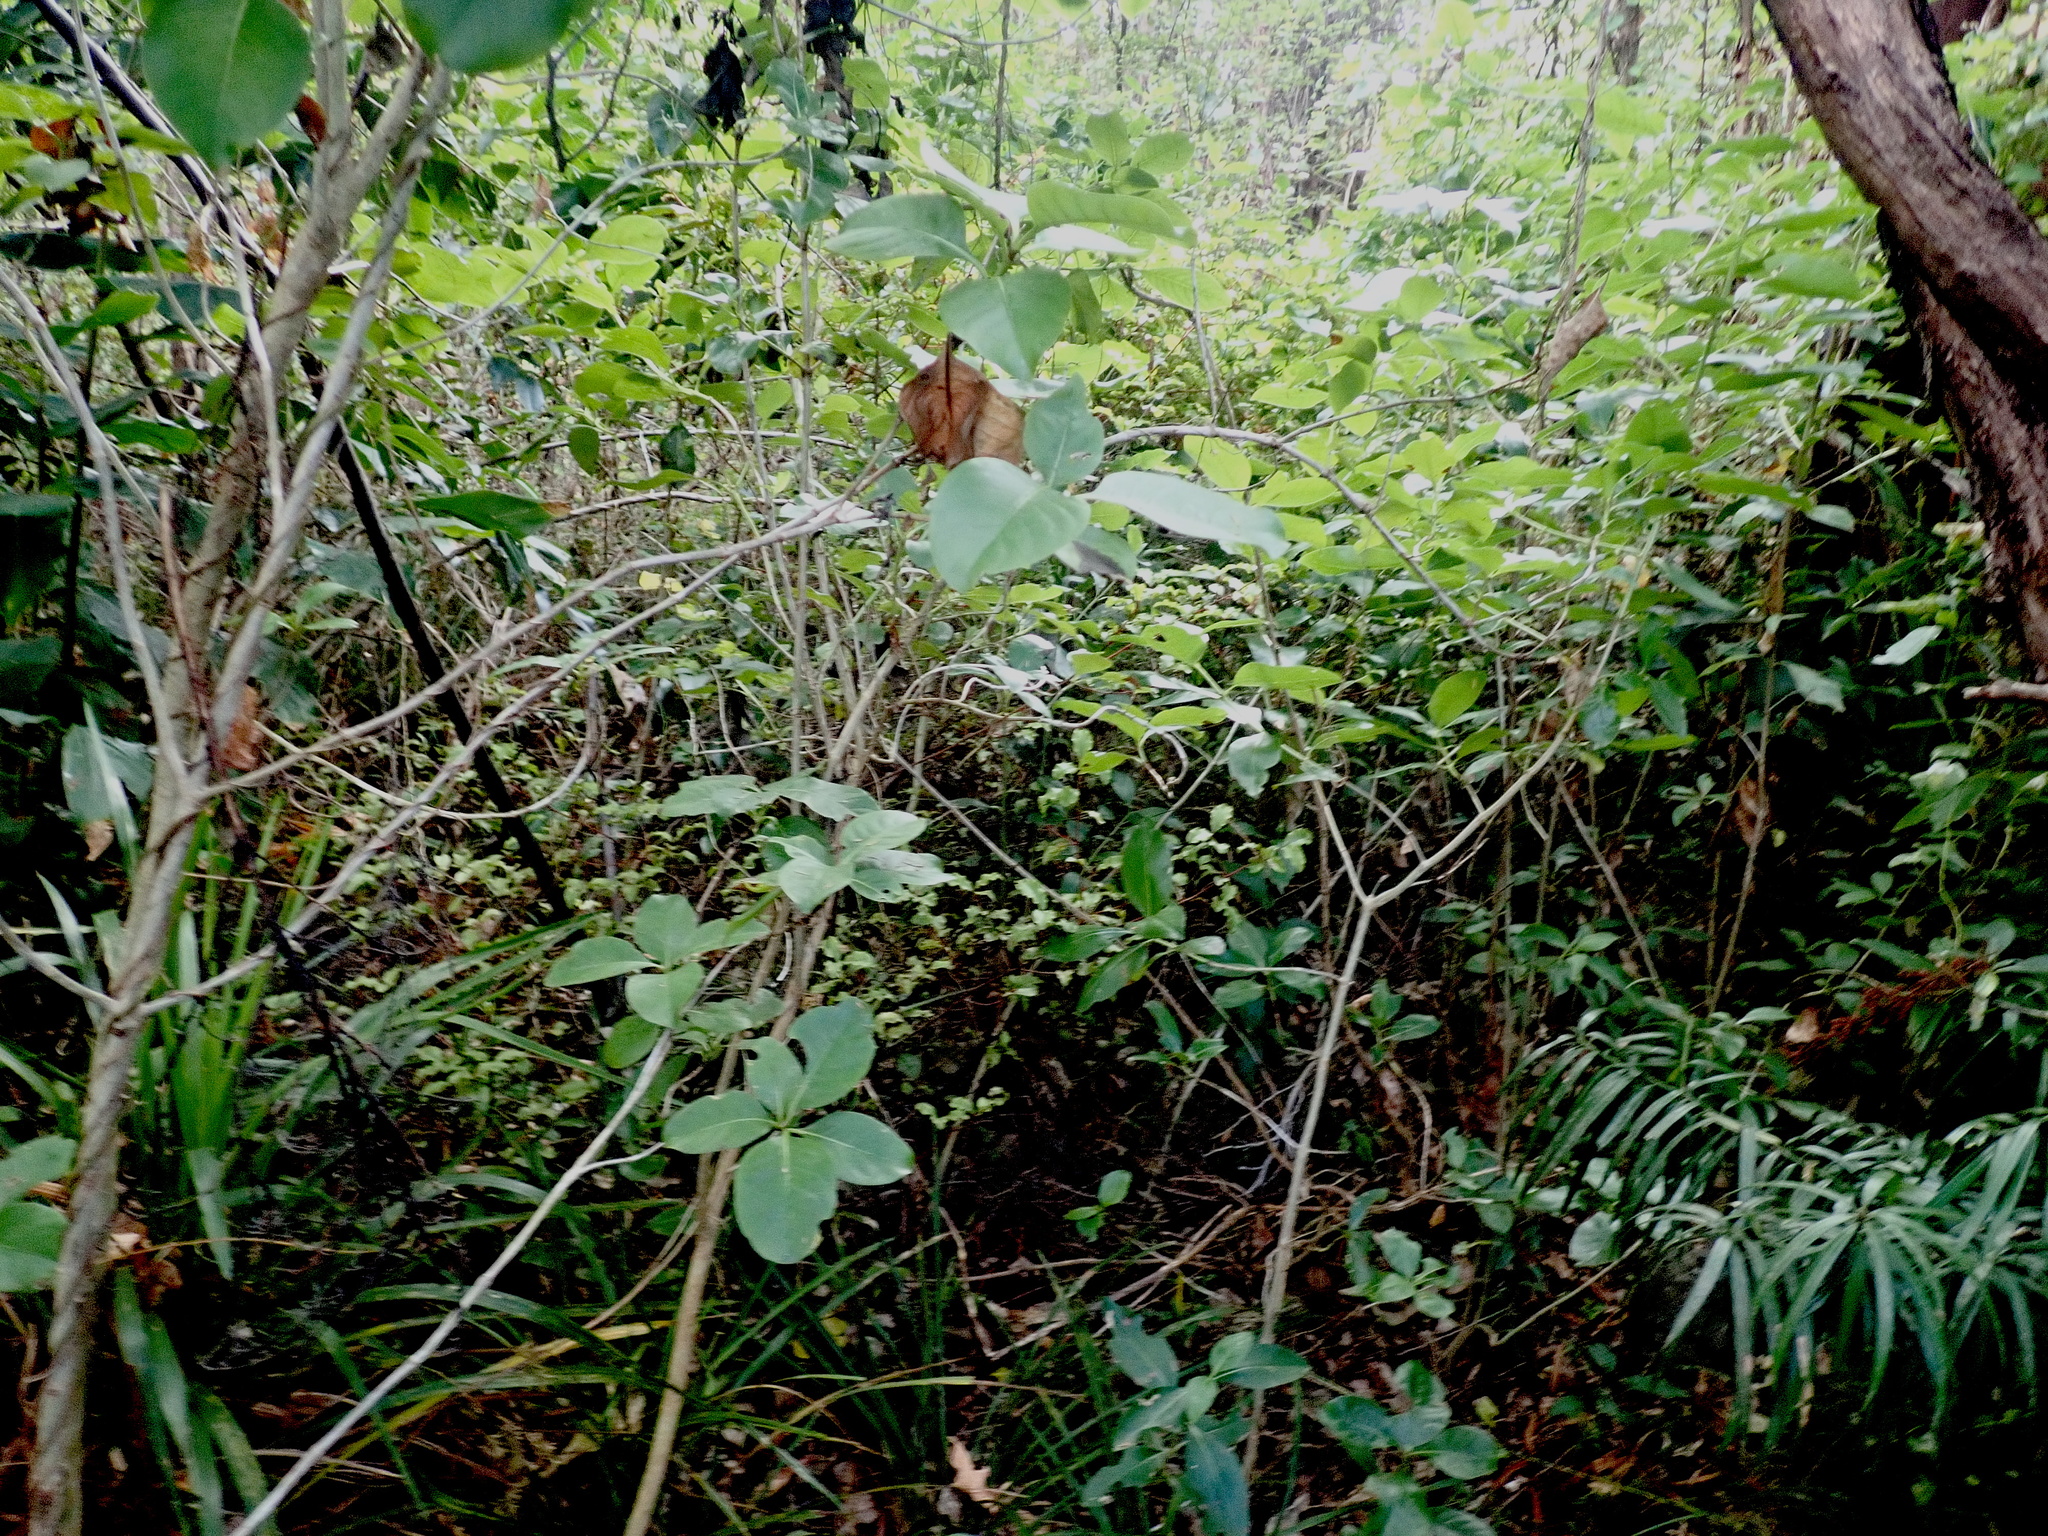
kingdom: Plantae
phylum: Tracheophyta
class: Magnoliopsida
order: Gentianales
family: Rubiaceae
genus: Coprosma
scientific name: Coprosma macrocarpa
